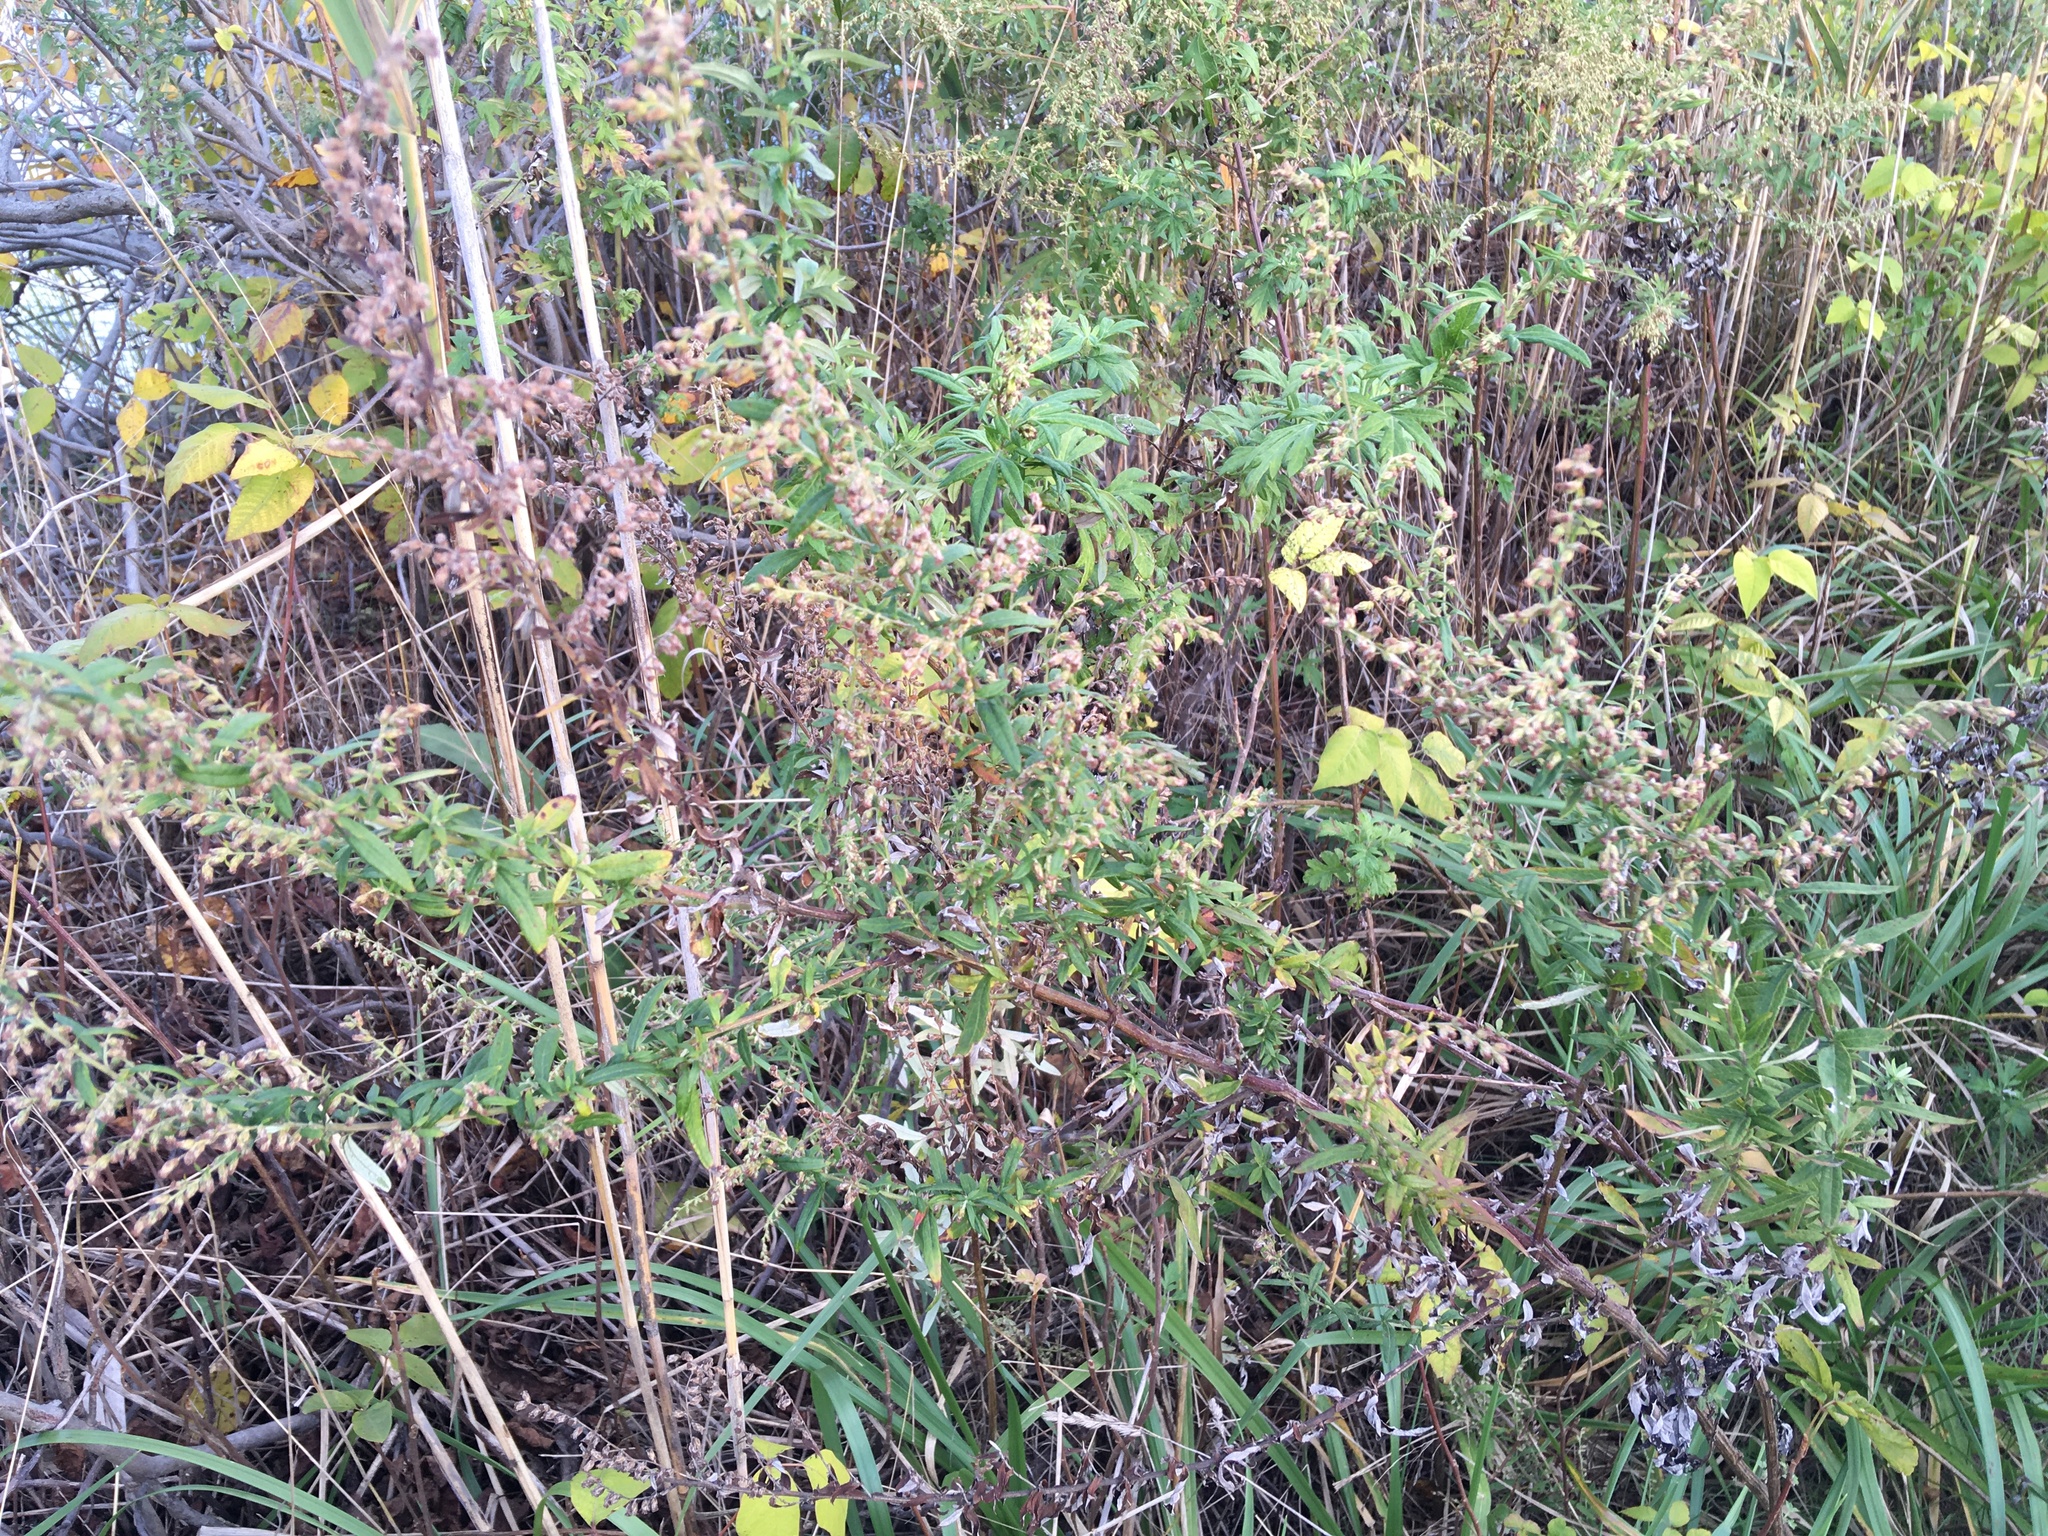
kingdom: Plantae
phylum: Tracheophyta
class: Magnoliopsida
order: Asterales
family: Asteraceae
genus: Artemisia
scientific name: Artemisia vulgaris
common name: Mugwort
